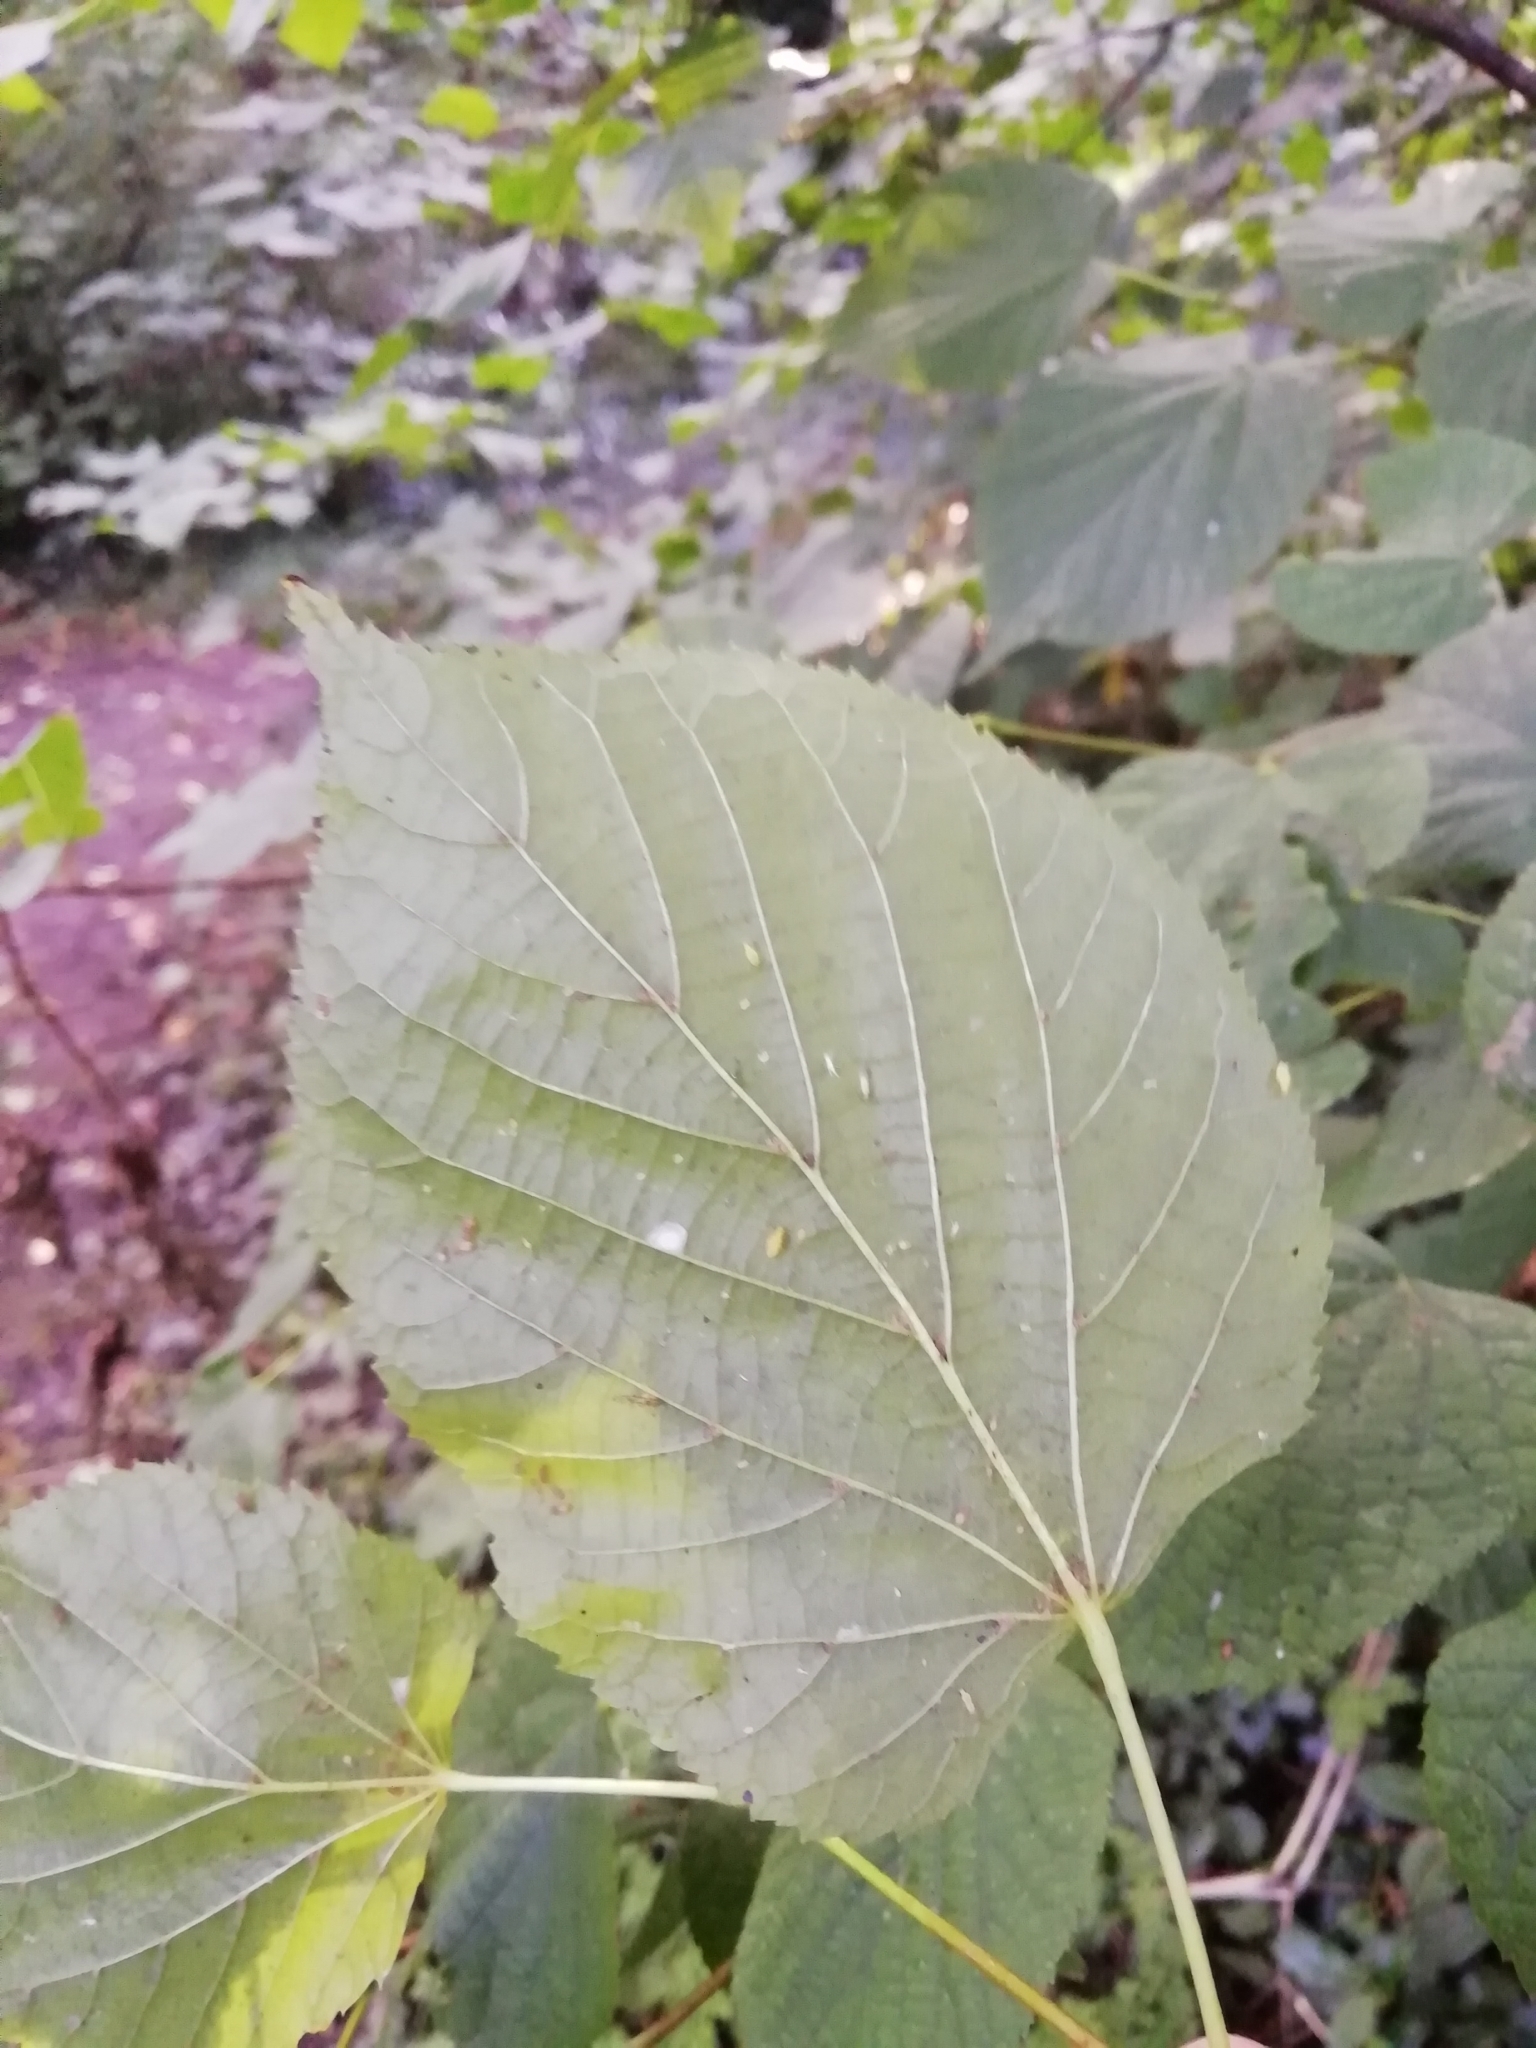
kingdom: Plantae
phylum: Tracheophyta
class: Magnoliopsida
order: Malvales
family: Malvaceae
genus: Tilia
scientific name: Tilia europaea
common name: European linden
